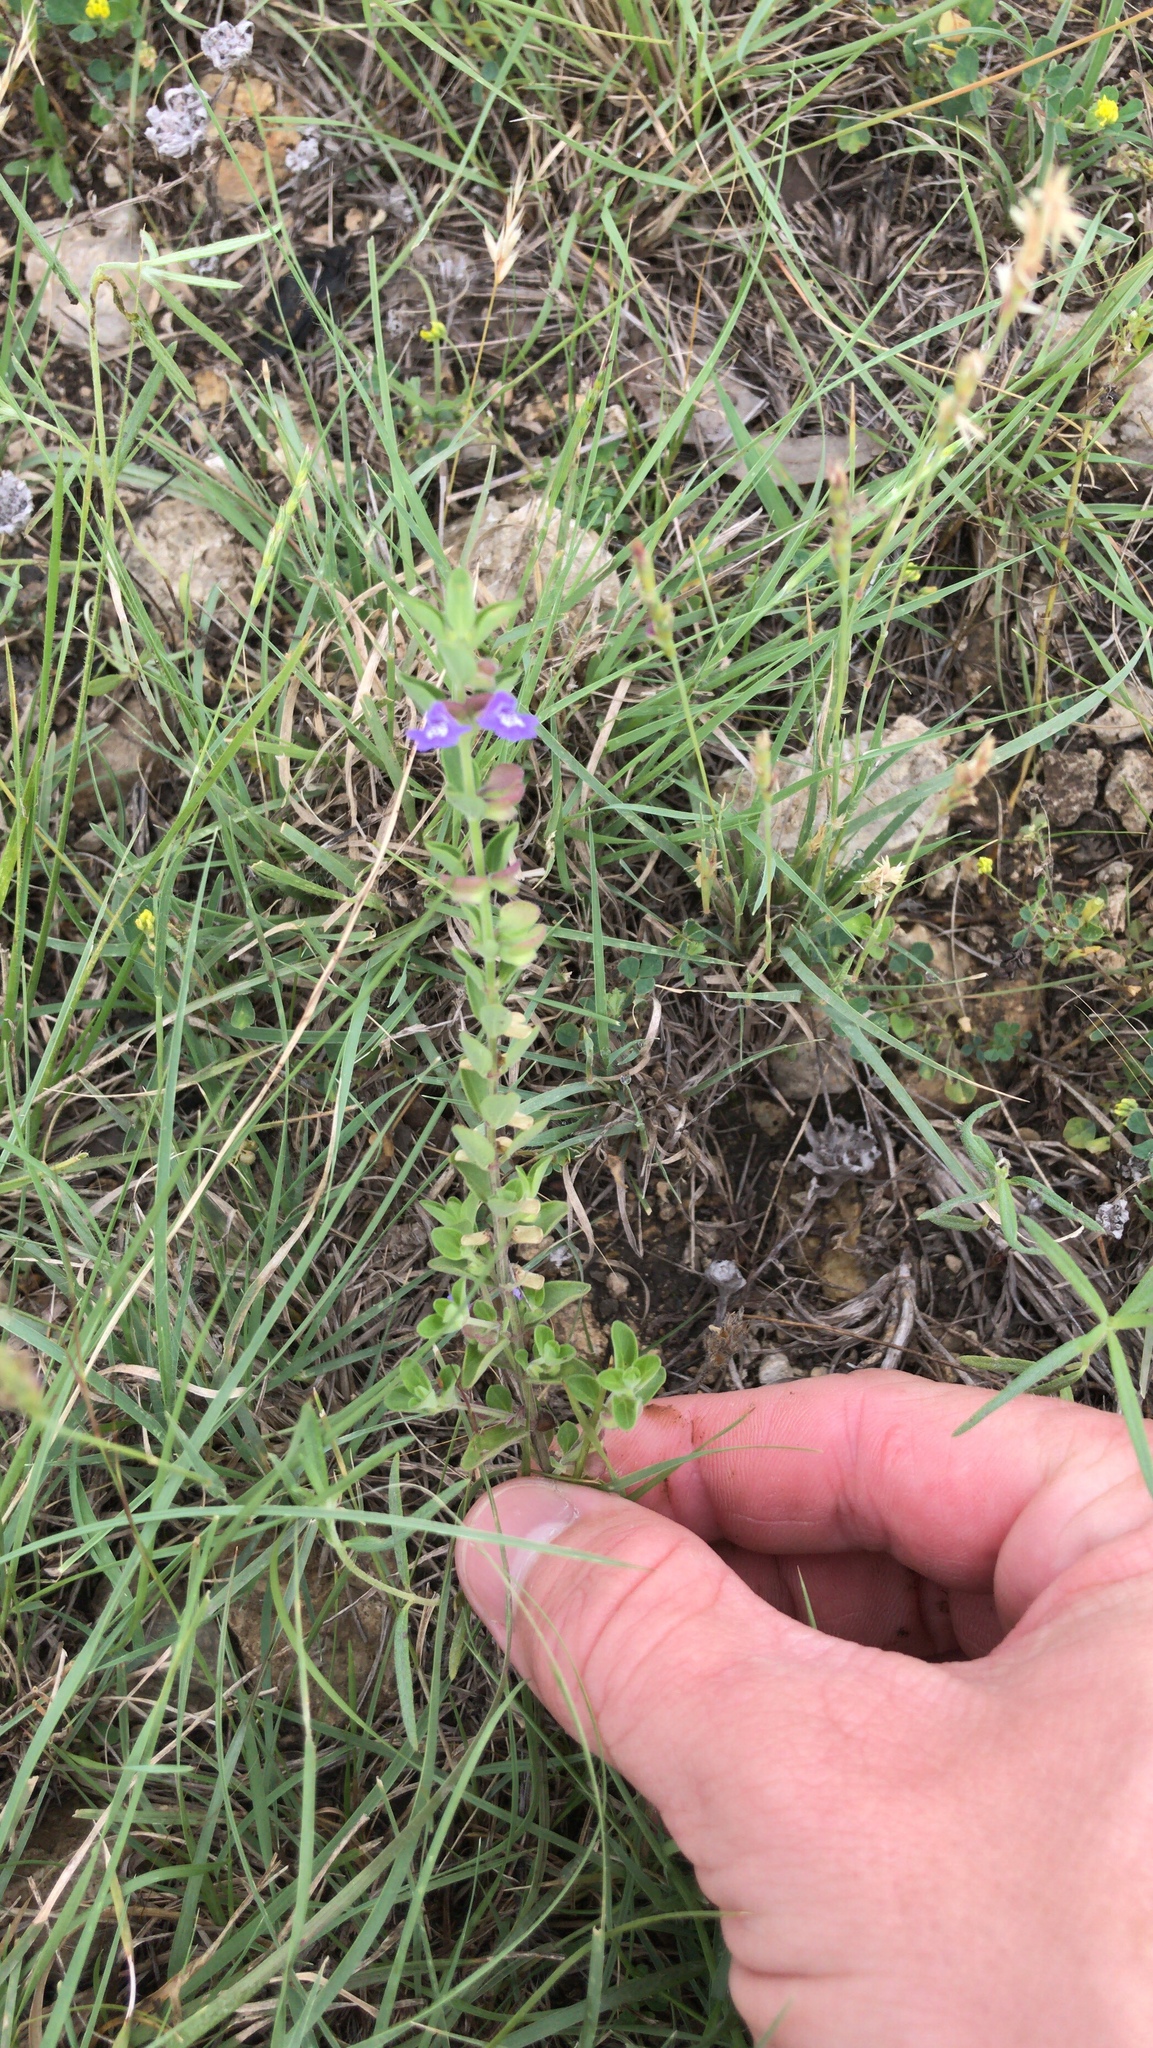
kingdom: Plantae
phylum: Tracheophyta
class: Magnoliopsida
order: Lamiales
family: Lamiaceae
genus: Scutellaria
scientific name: Scutellaria drummondii
